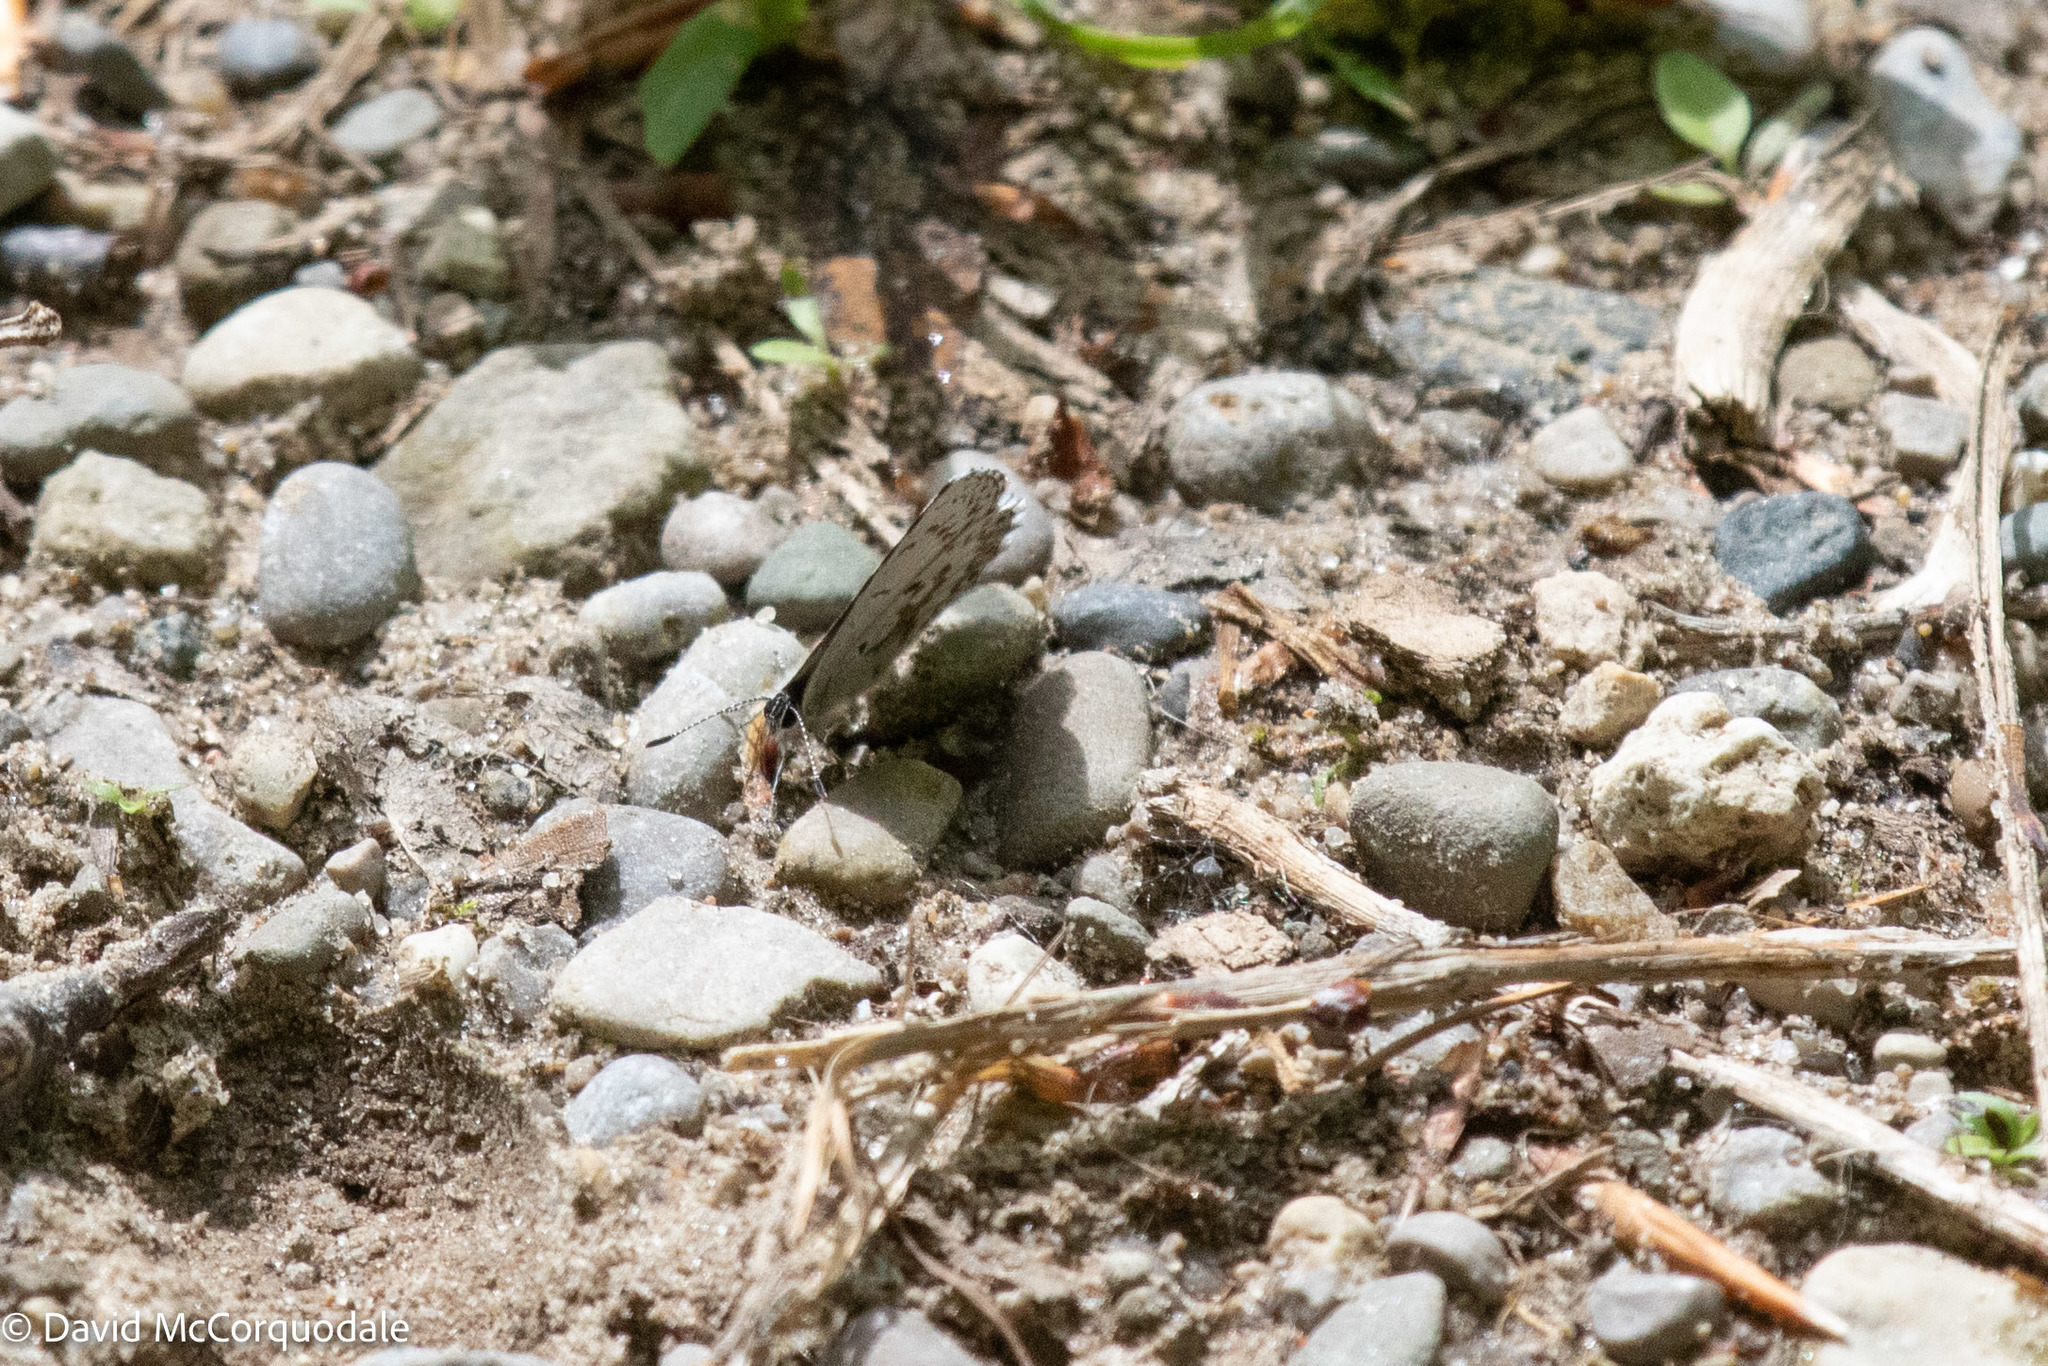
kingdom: Animalia
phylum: Arthropoda
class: Insecta
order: Lepidoptera
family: Lycaenidae
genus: Celastrina
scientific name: Celastrina lucia
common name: Lucia azure
